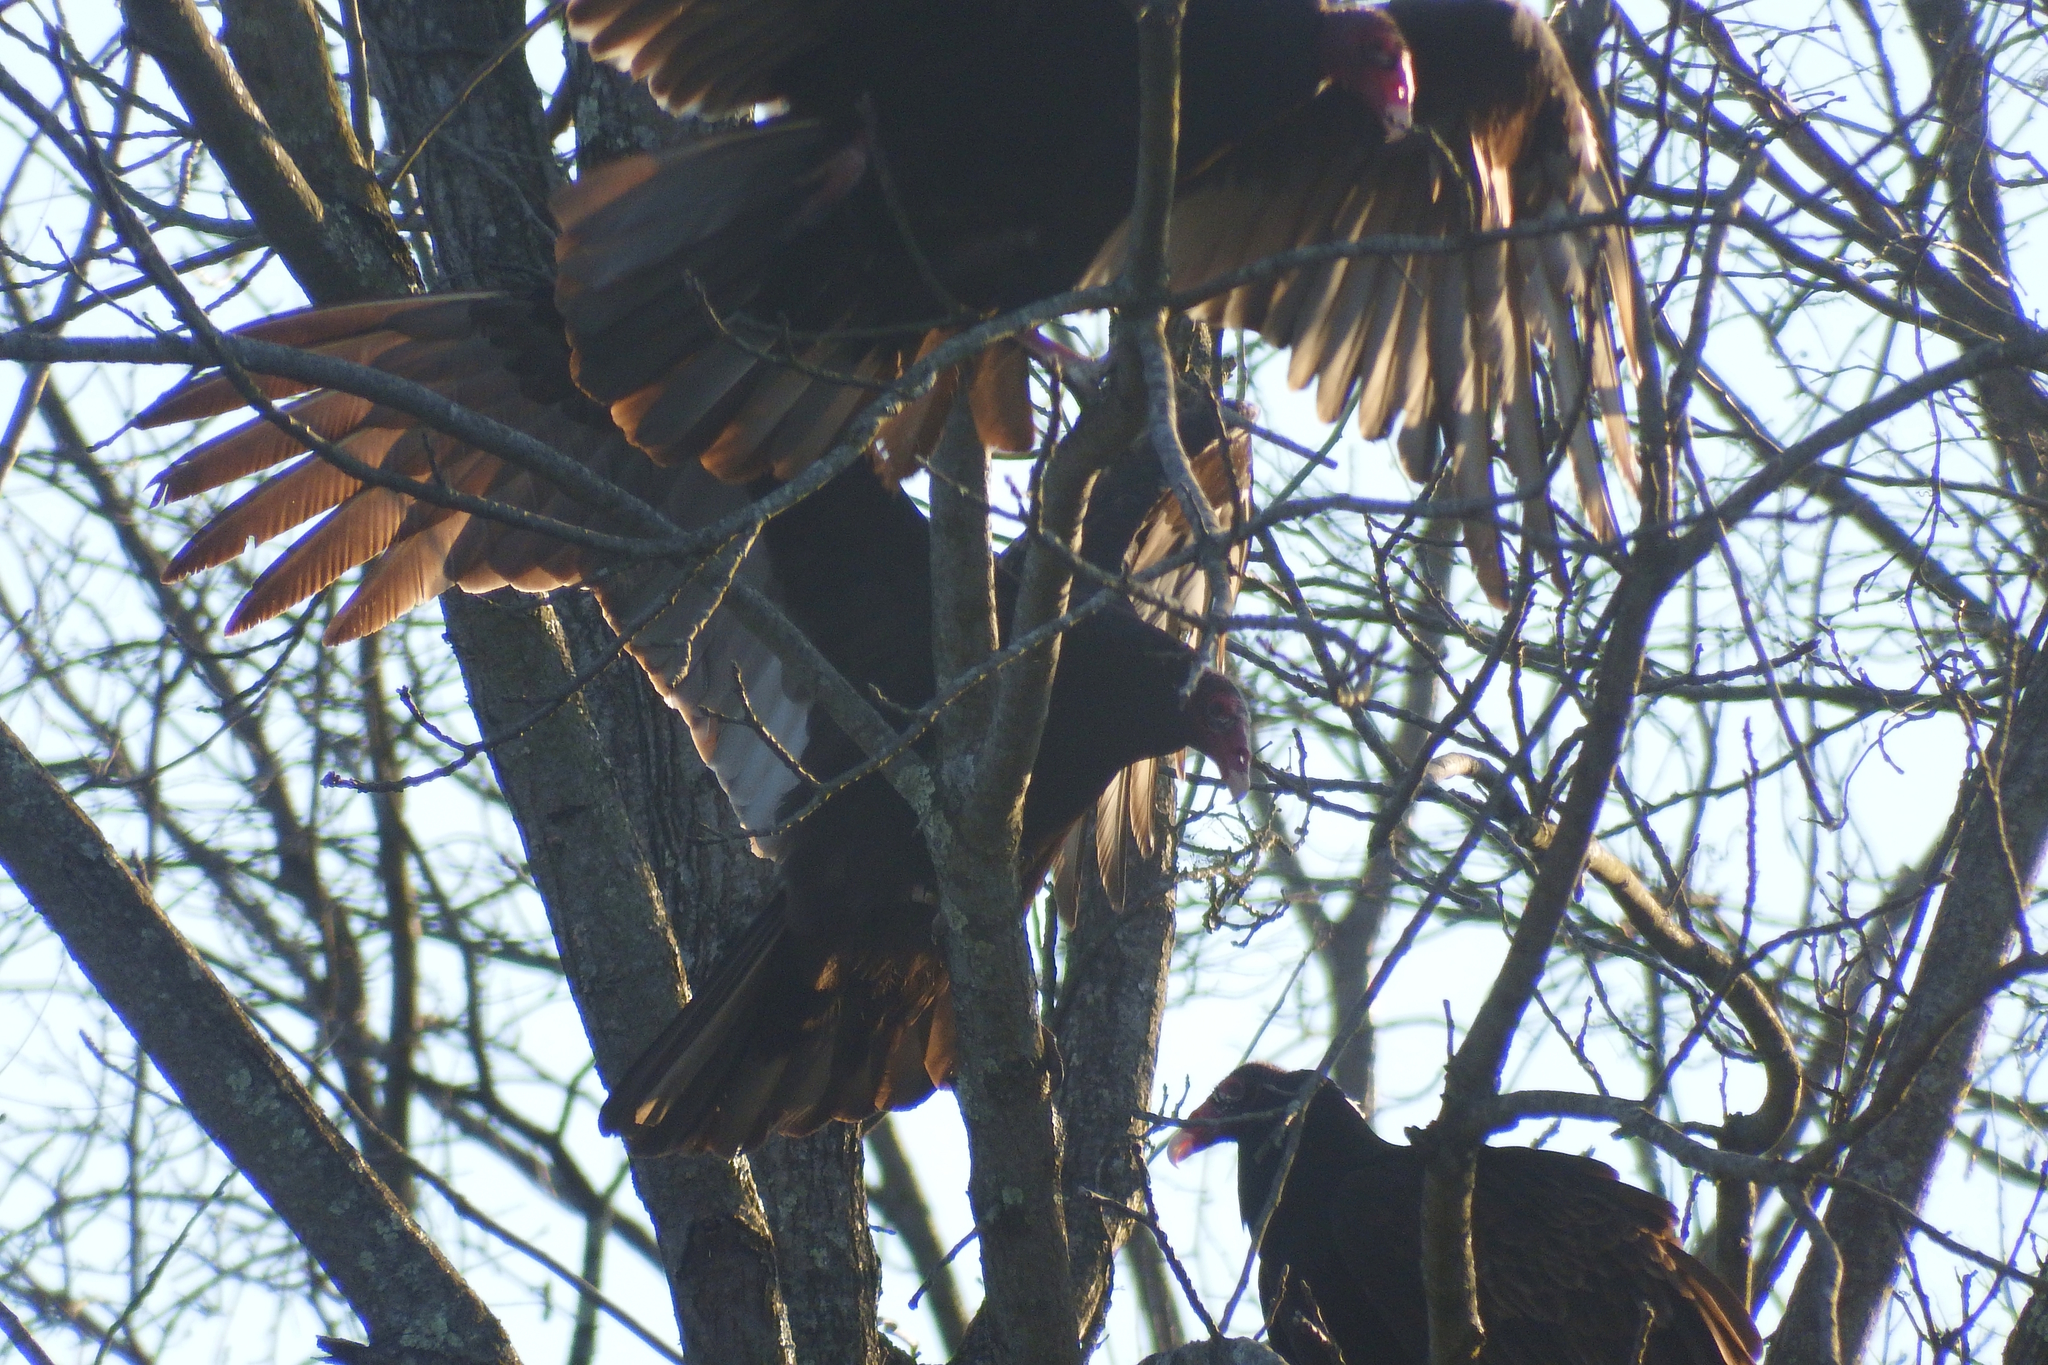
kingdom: Animalia
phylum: Chordata
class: Aves
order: Accipitriformes
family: Cathartidae
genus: Cathartes
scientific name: Cathartes aura
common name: Turkey vulture
